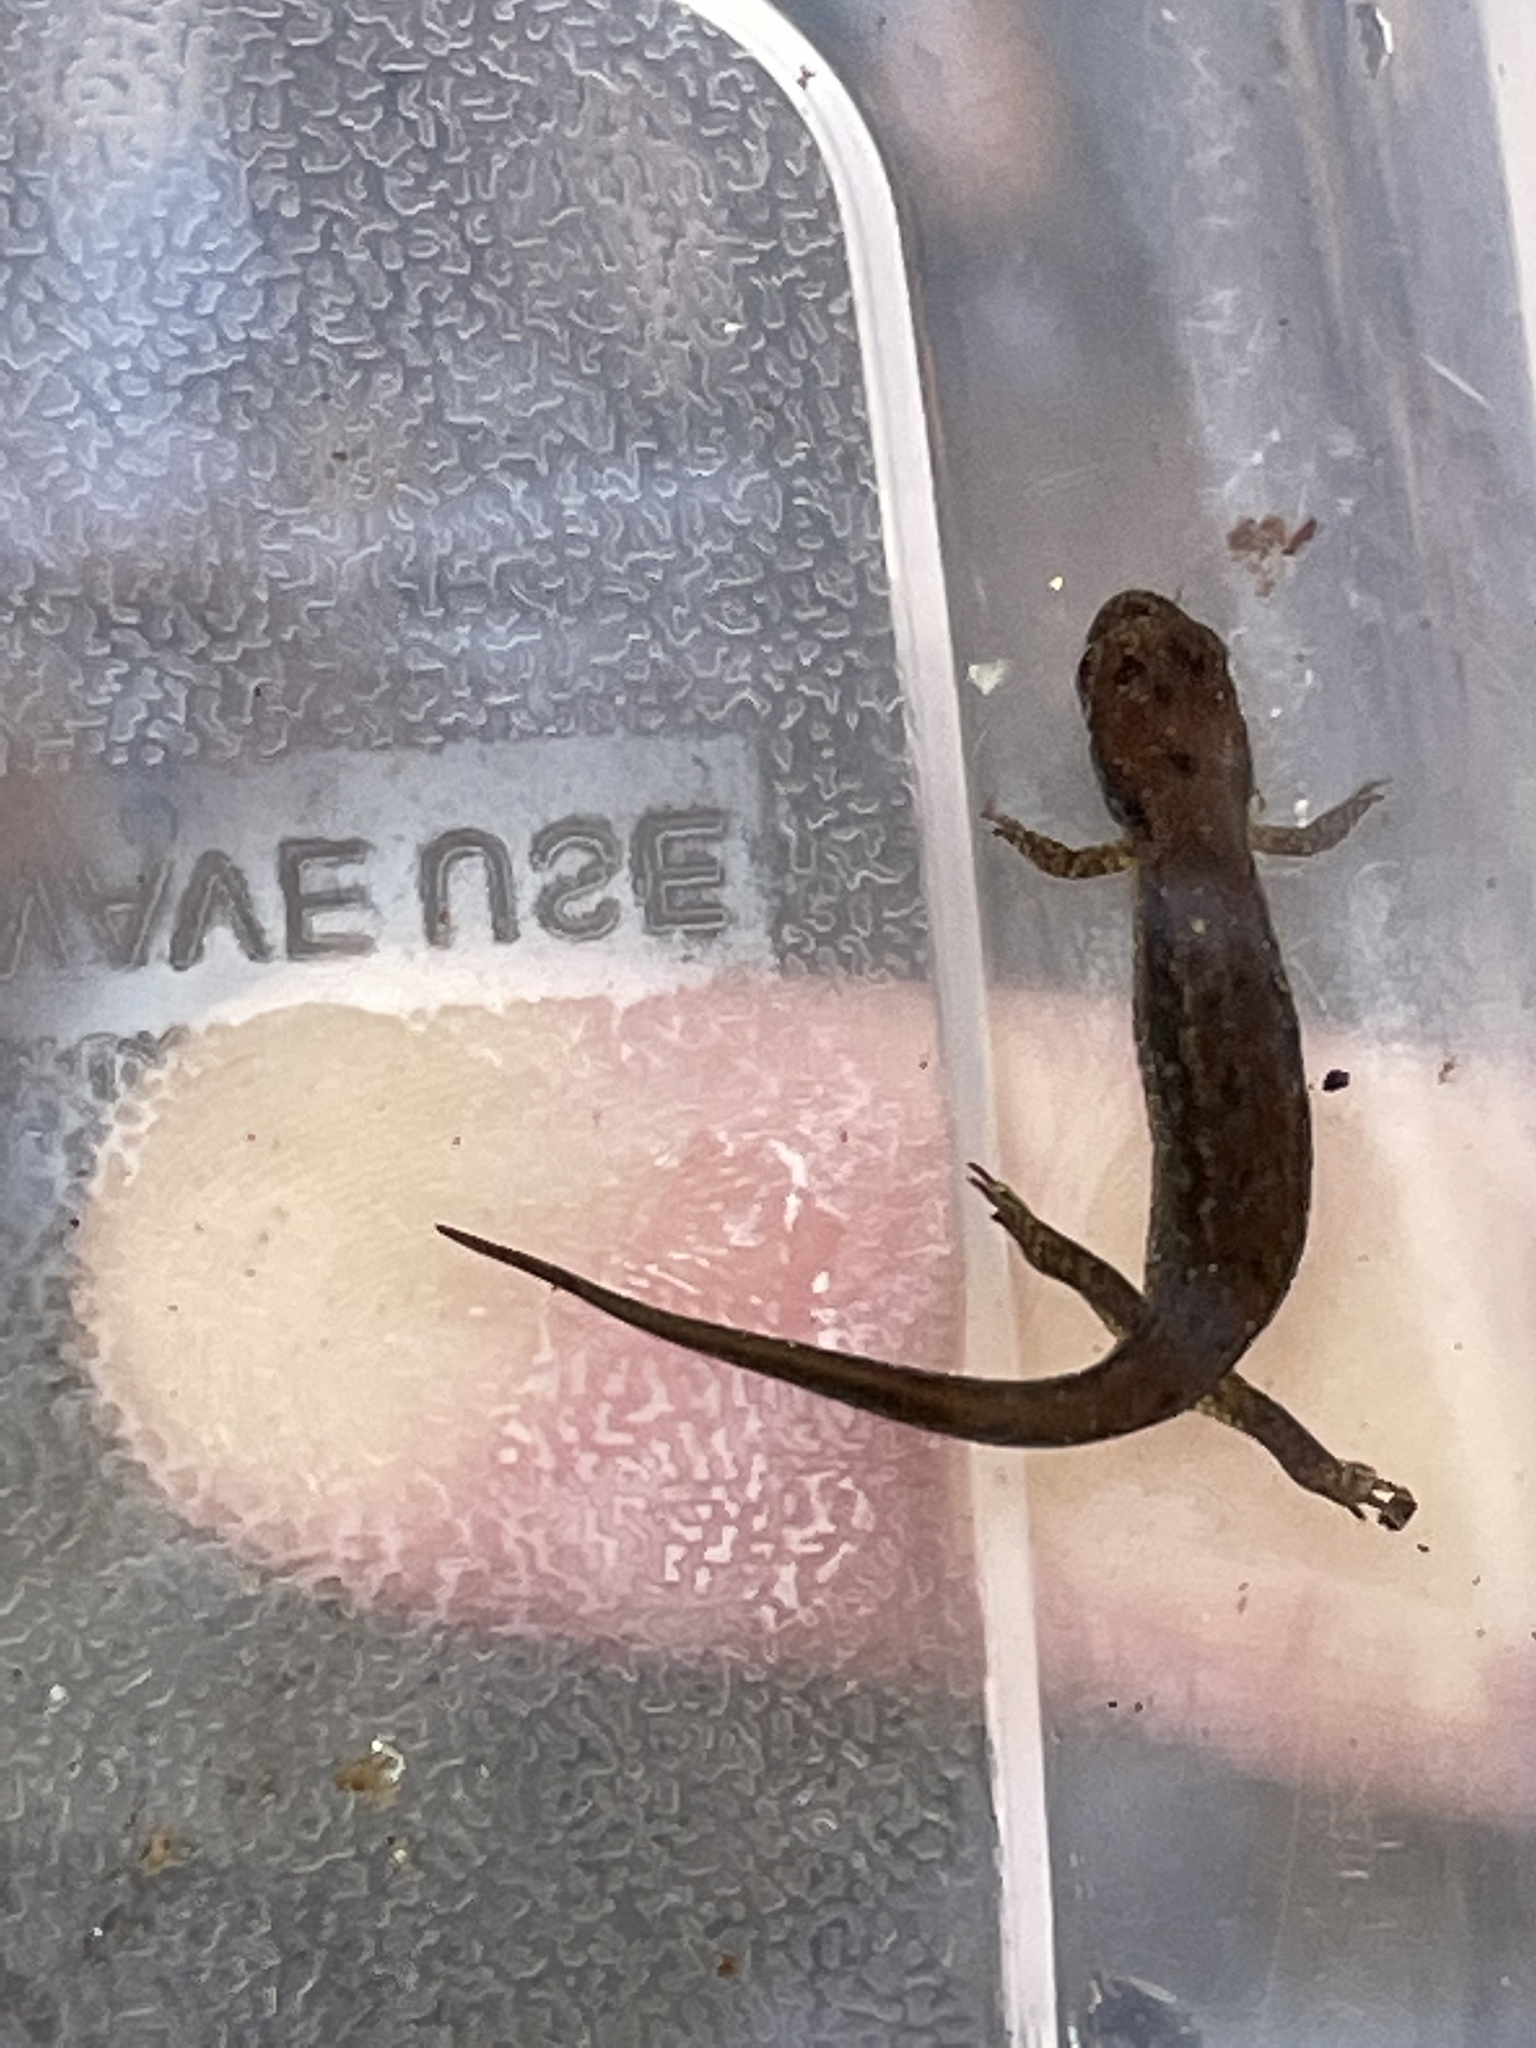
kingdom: Animalia
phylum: Chordata
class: Amphibia
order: Caudata
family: Plethodontidae
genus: Desmognathus
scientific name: Desmognathus fuscus
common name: Northern dusky salamander
